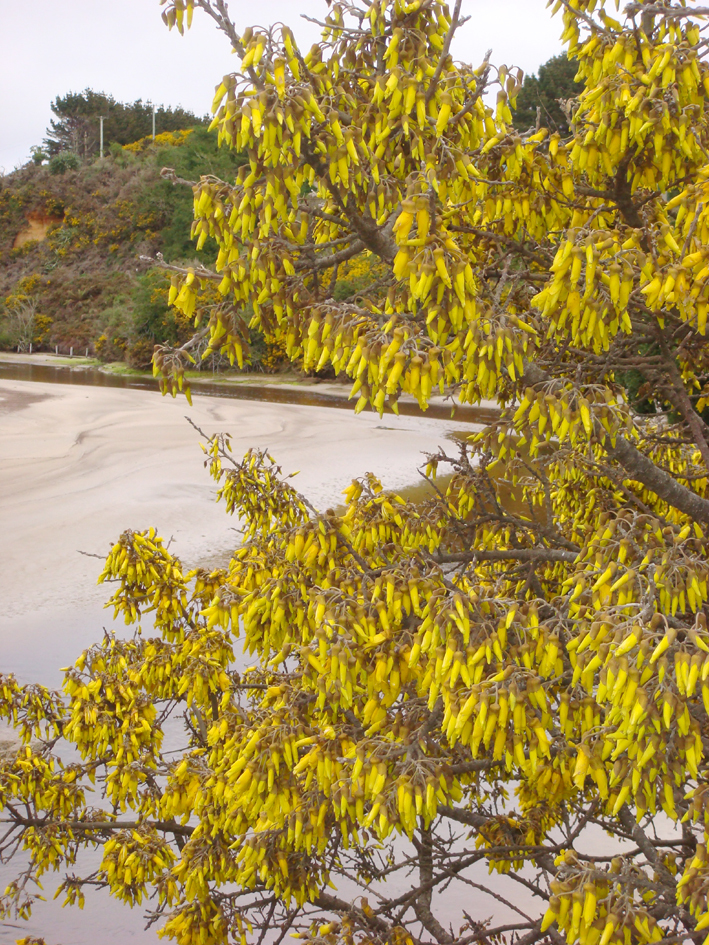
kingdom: Plantae
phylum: Tracheophyta
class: Magnoliopsida
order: Fabales
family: Fabaceae
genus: Sophora
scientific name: Sophora chathamica
